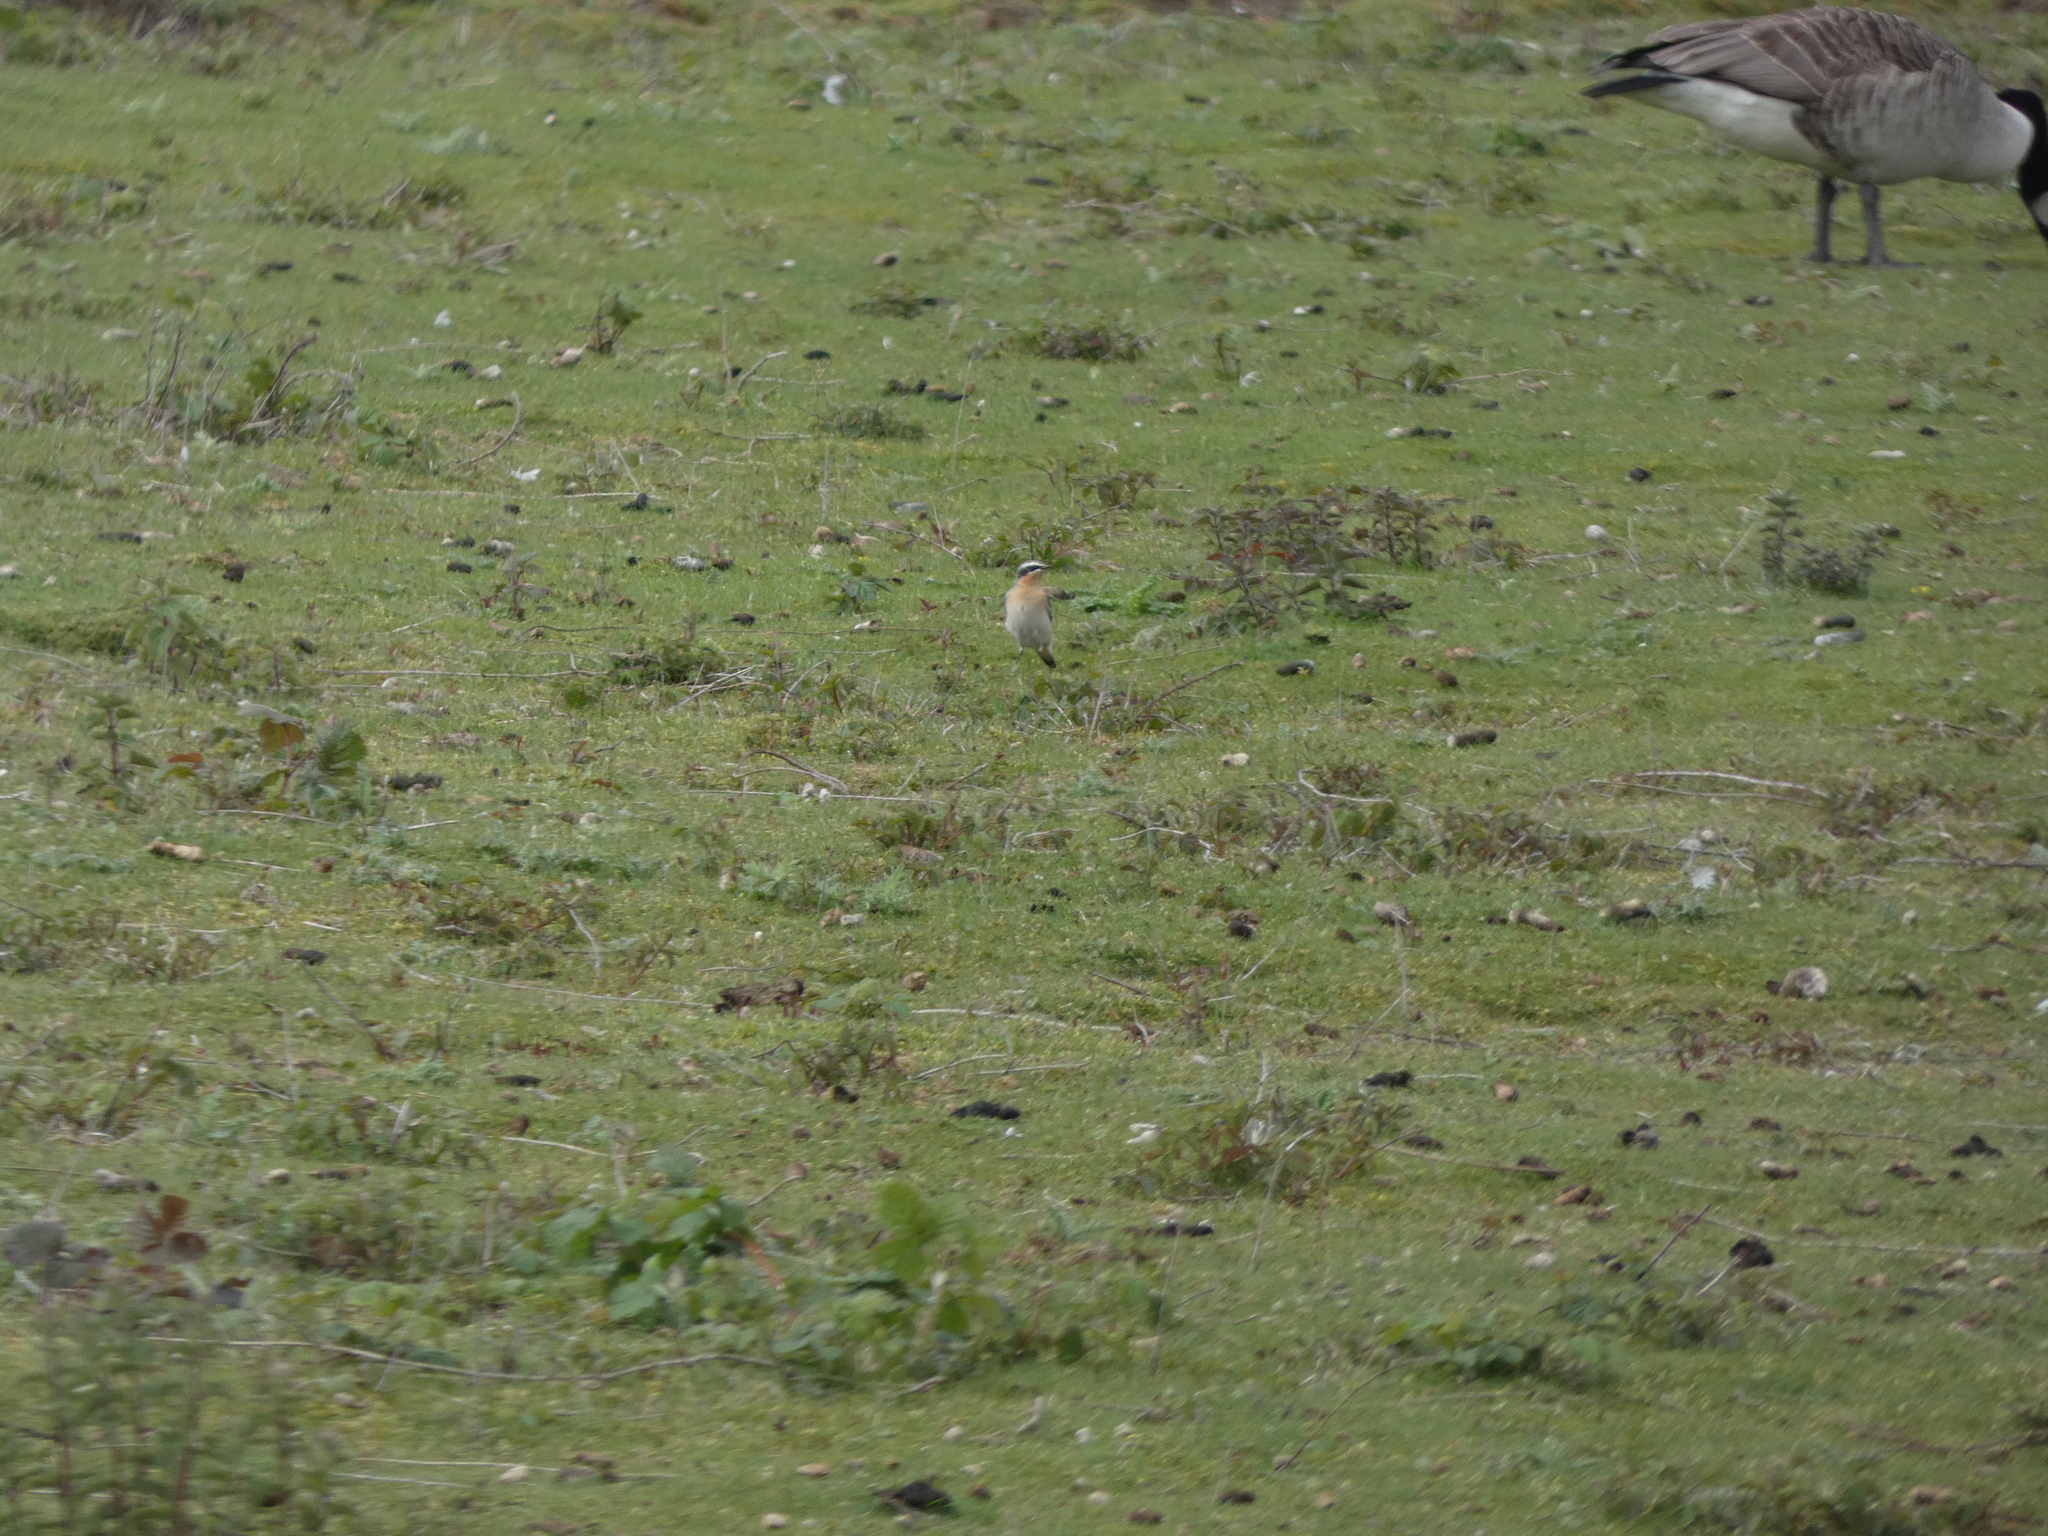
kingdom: Animalia
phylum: Chordata
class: Aves
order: Passeriformes
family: Muscicapidae
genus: Oenanthe
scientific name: Oenanthe oenanthe
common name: Northern wheatear
